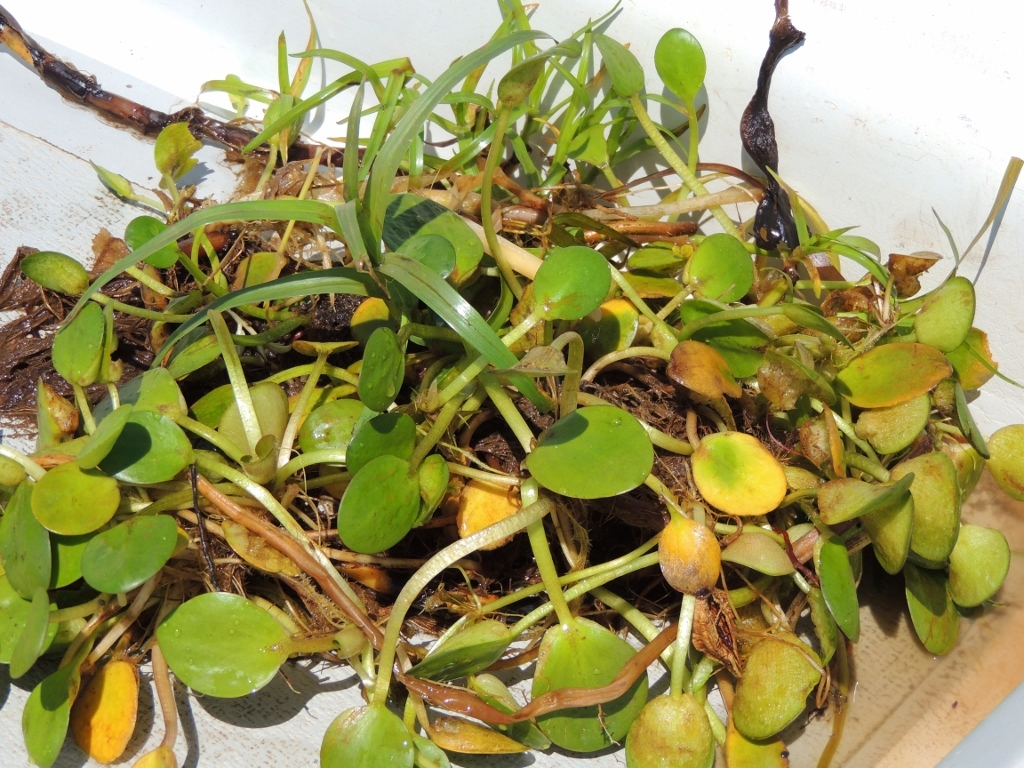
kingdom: Plantae
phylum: Tracheophyta
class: Liliopsida
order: Alismatales
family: Hydrocharitaceae
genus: Hydrocharis
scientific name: Hydrocharis laevigata
